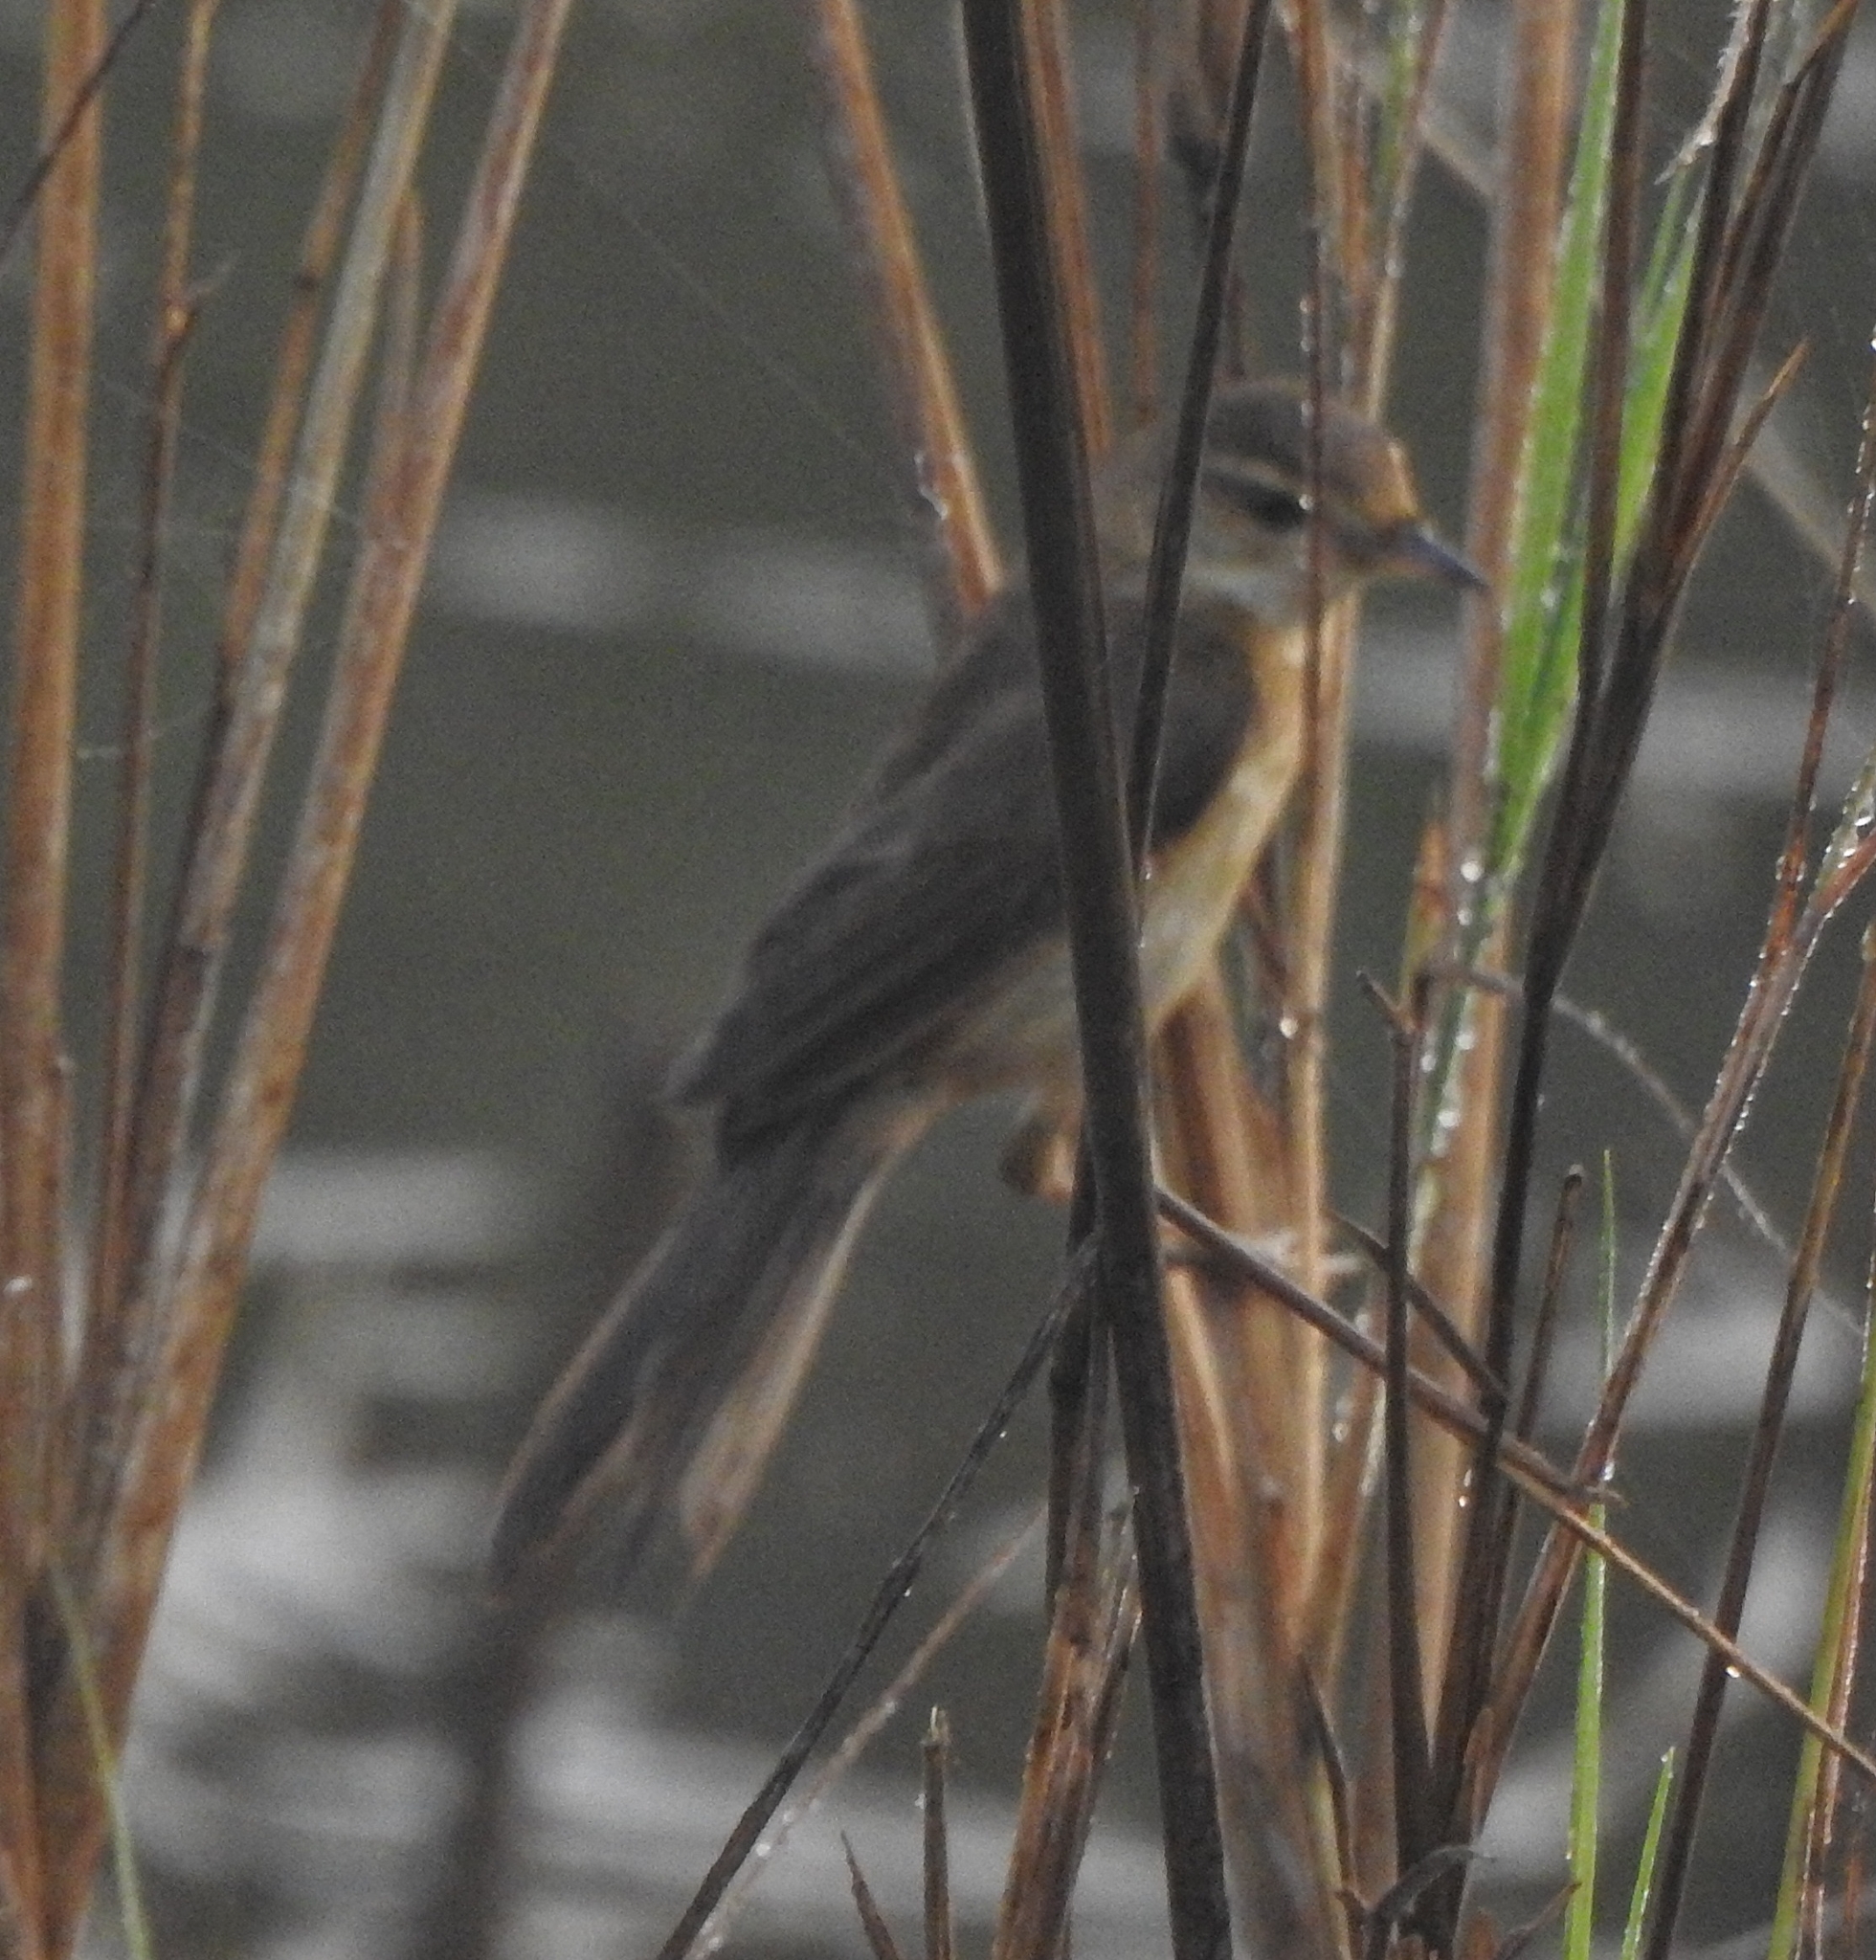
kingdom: Animalia
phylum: Chordata
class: Aves
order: Passeriformes
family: Acrocephalidae
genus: Acrocephalus
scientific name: Acrocephalus agricola
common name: Paddyfield warbler
